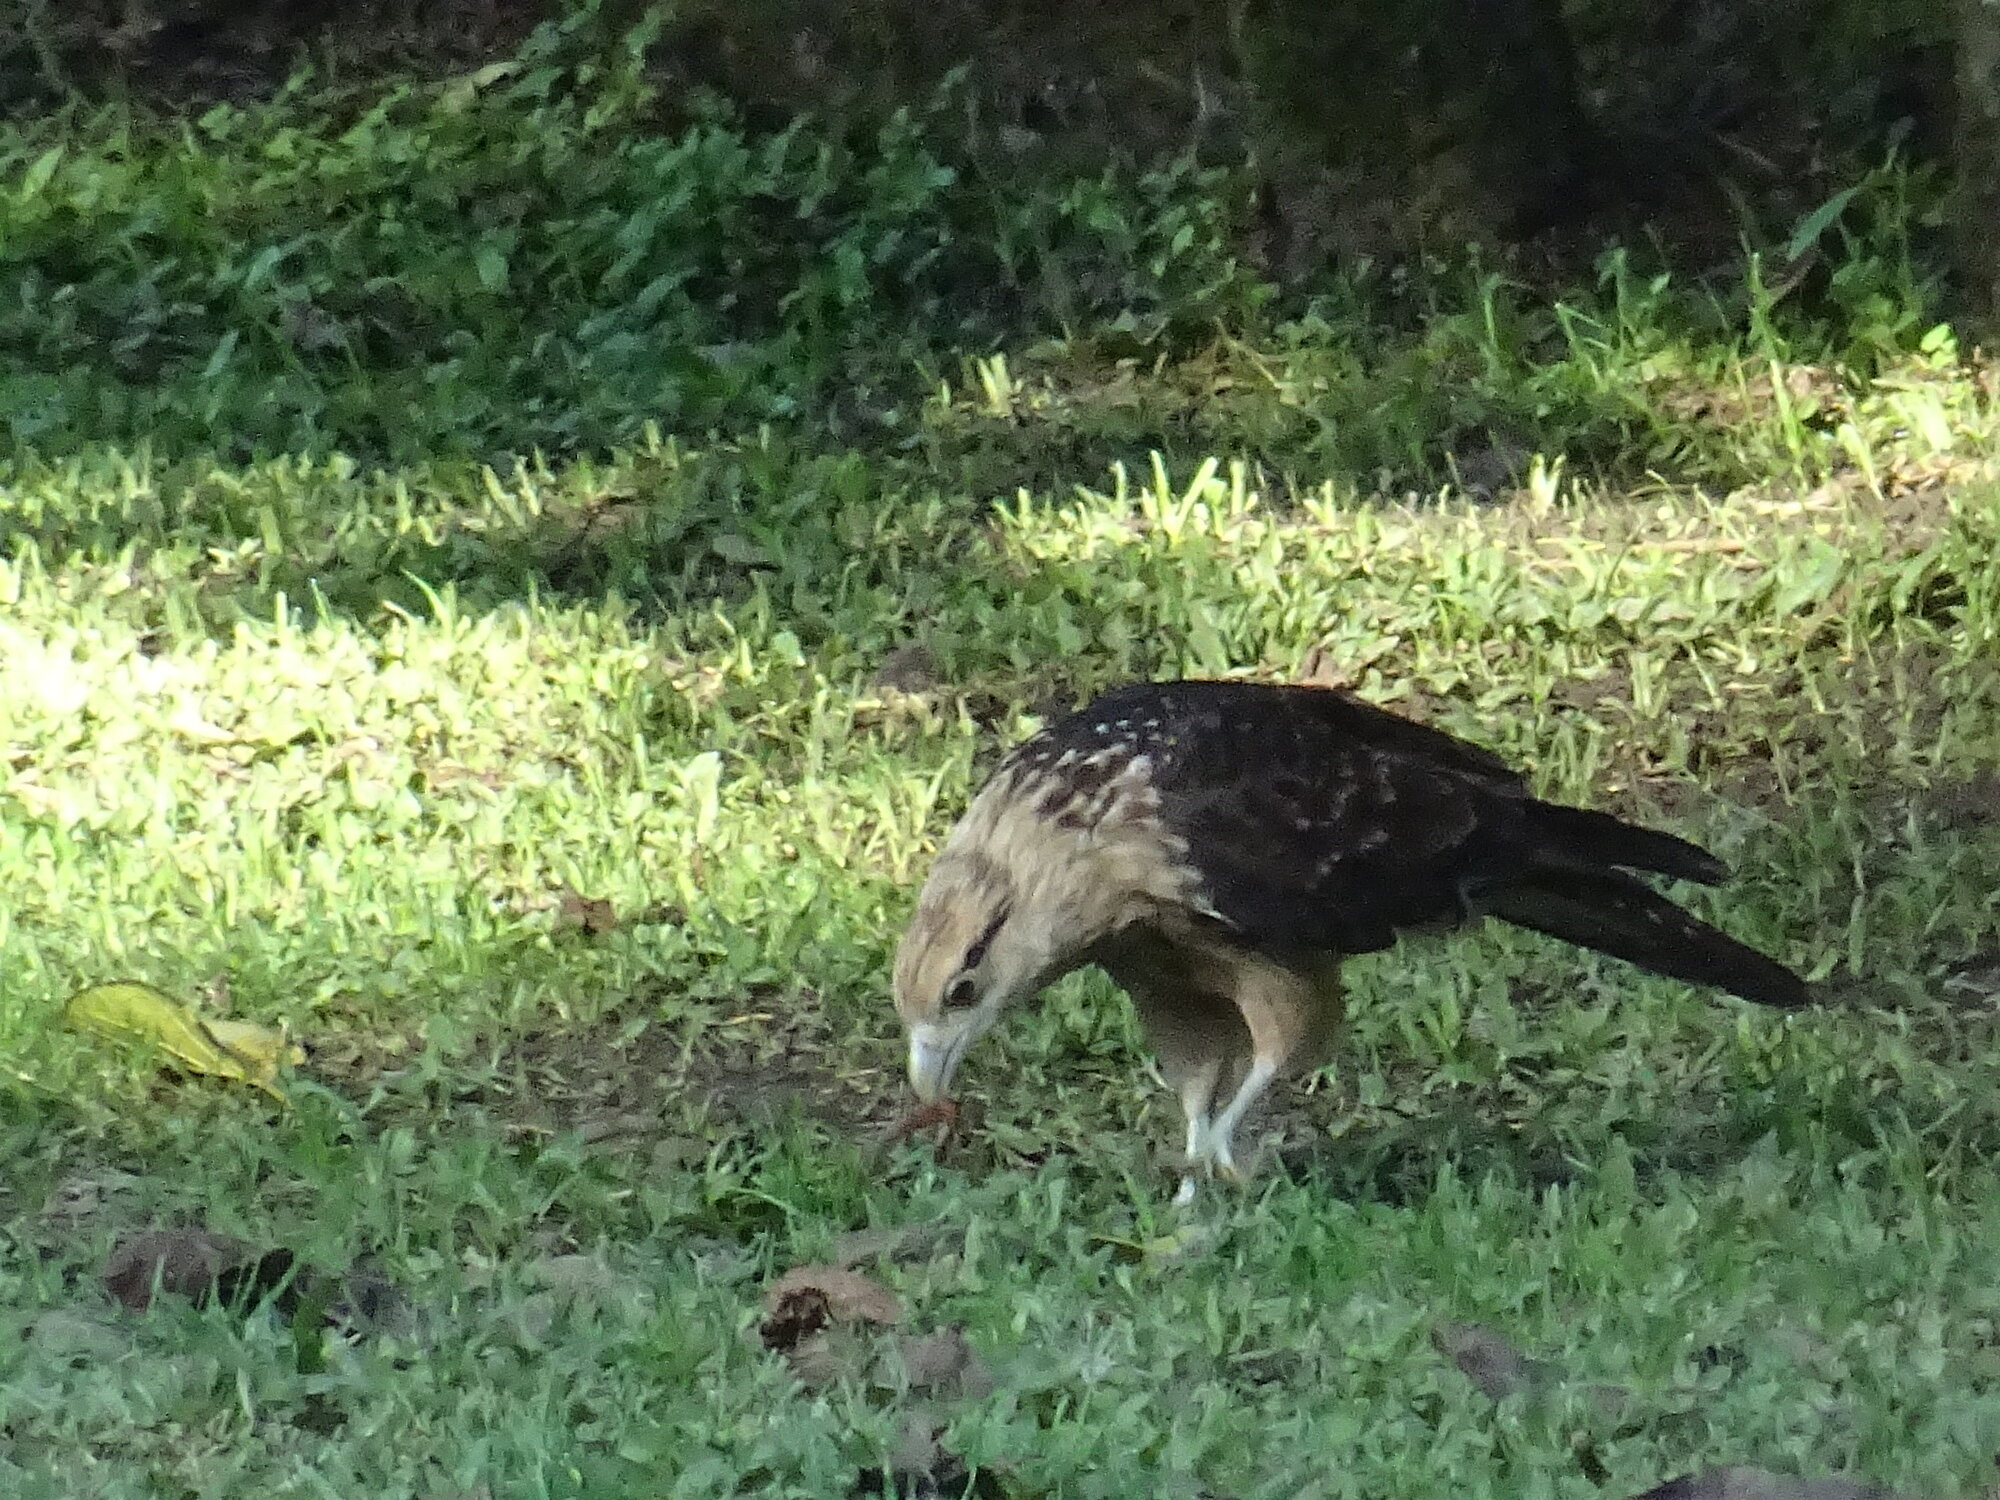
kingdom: Animalia
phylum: Chordata
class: Aves
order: Falconiformes
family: Falconidae
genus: Daptrius
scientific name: Daptrius
